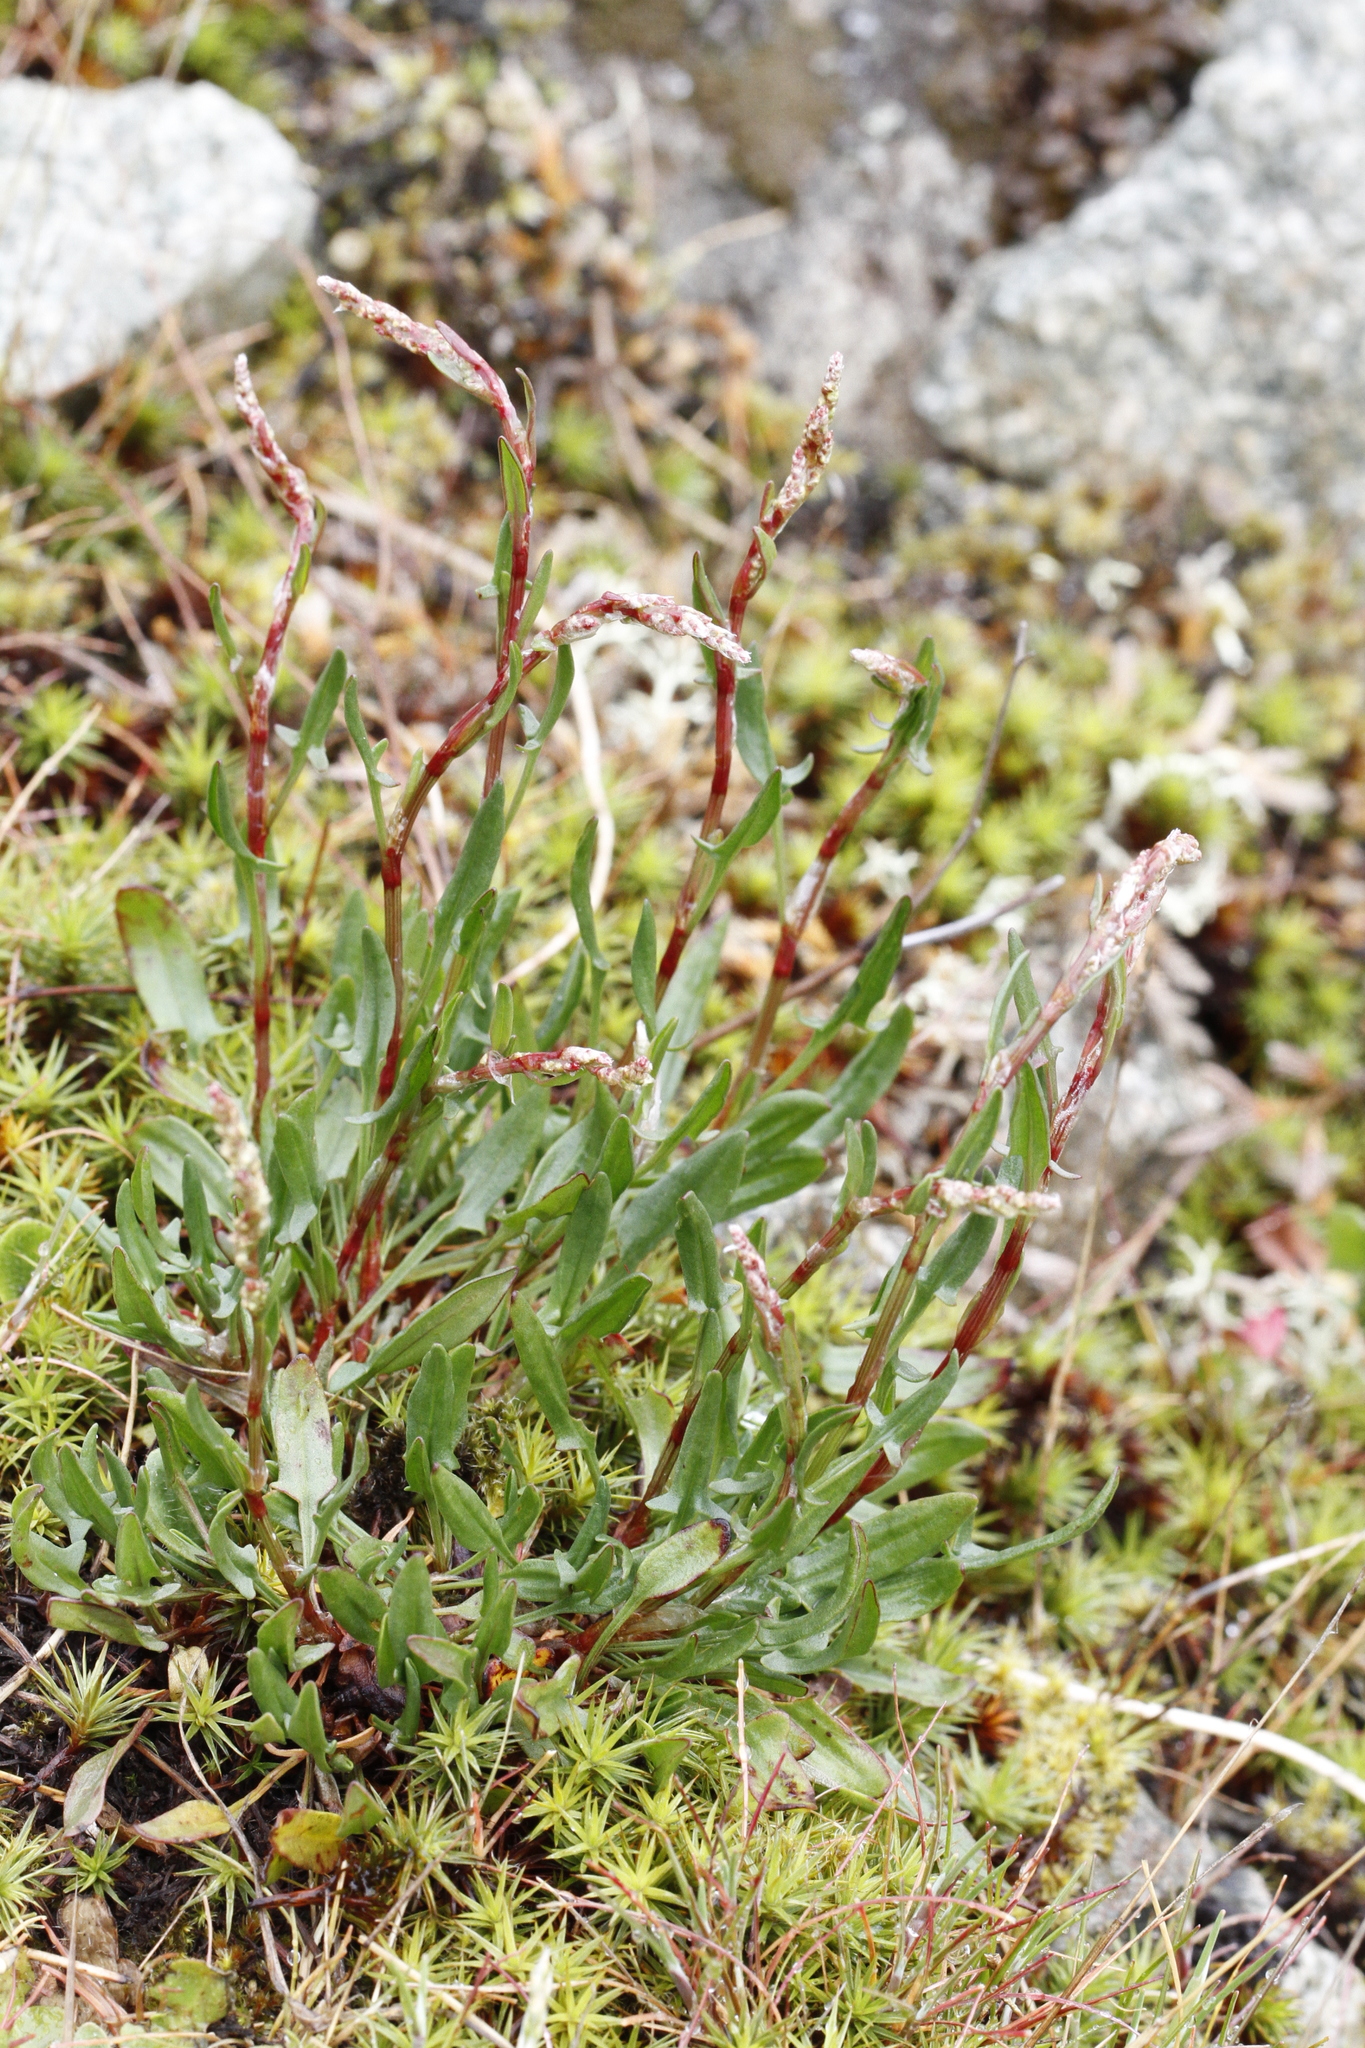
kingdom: Plantae
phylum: Tracheophyta
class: Magnoliopsida
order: Caryophyllales
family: Polygonaceae
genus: Rumex
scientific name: Rumex acetosella
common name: Common sheep sorrel
